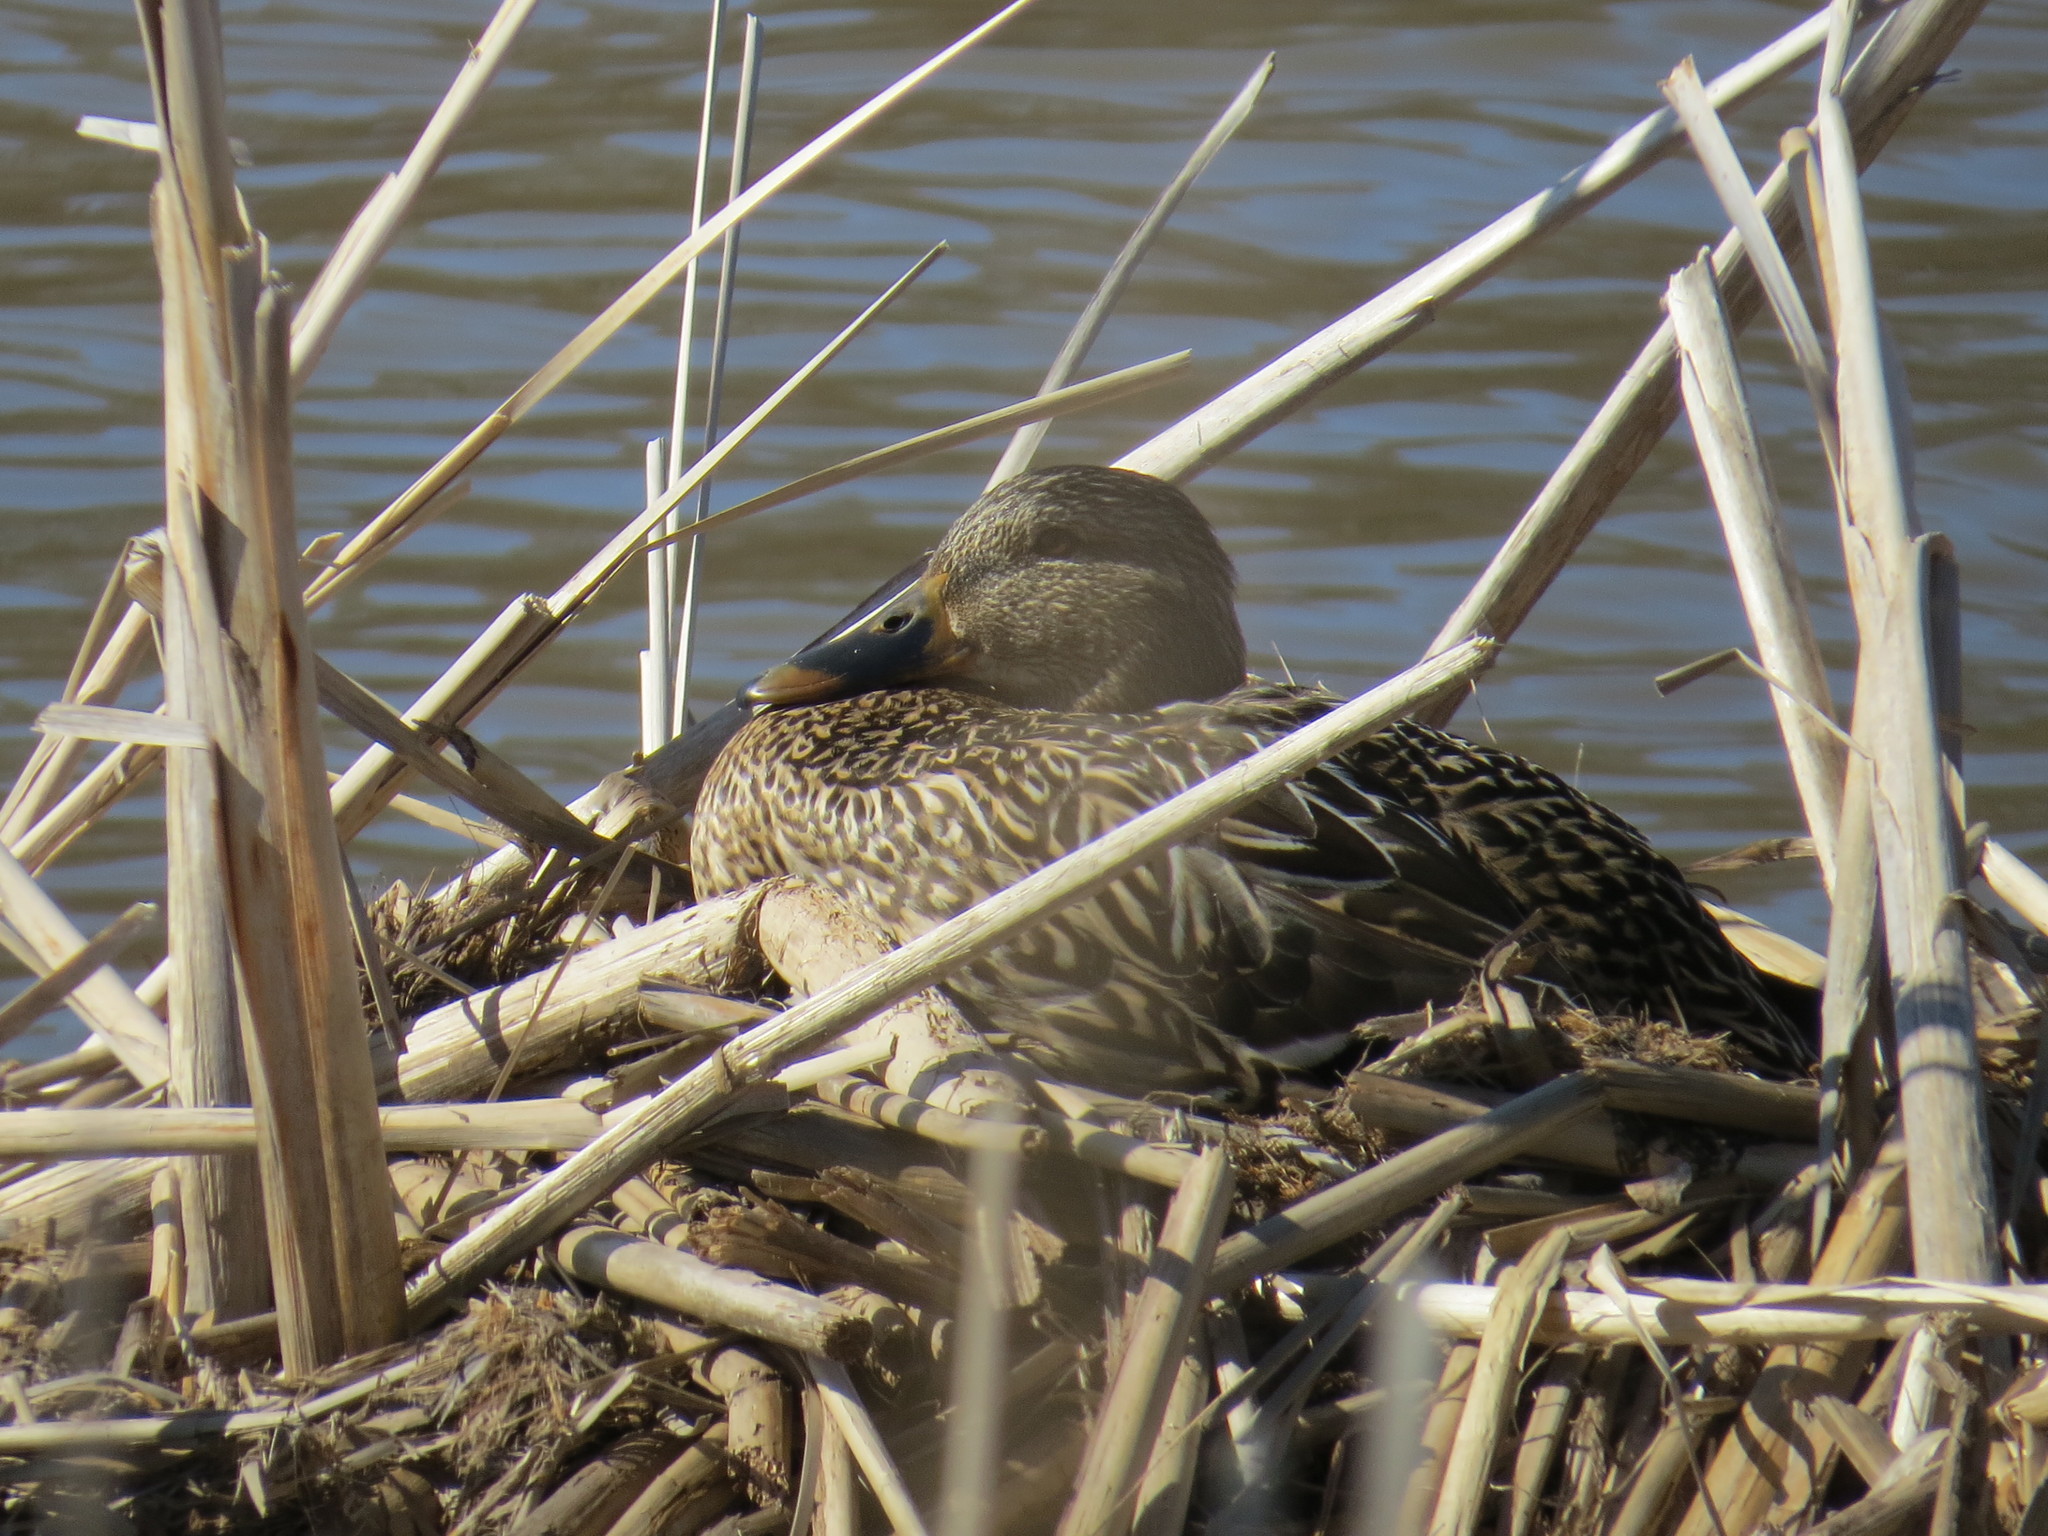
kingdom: Animalia
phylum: Chordata
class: Aves
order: Anseriformes
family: Anatidae
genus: Anas
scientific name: Anas platyrhynchos
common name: Mallard
